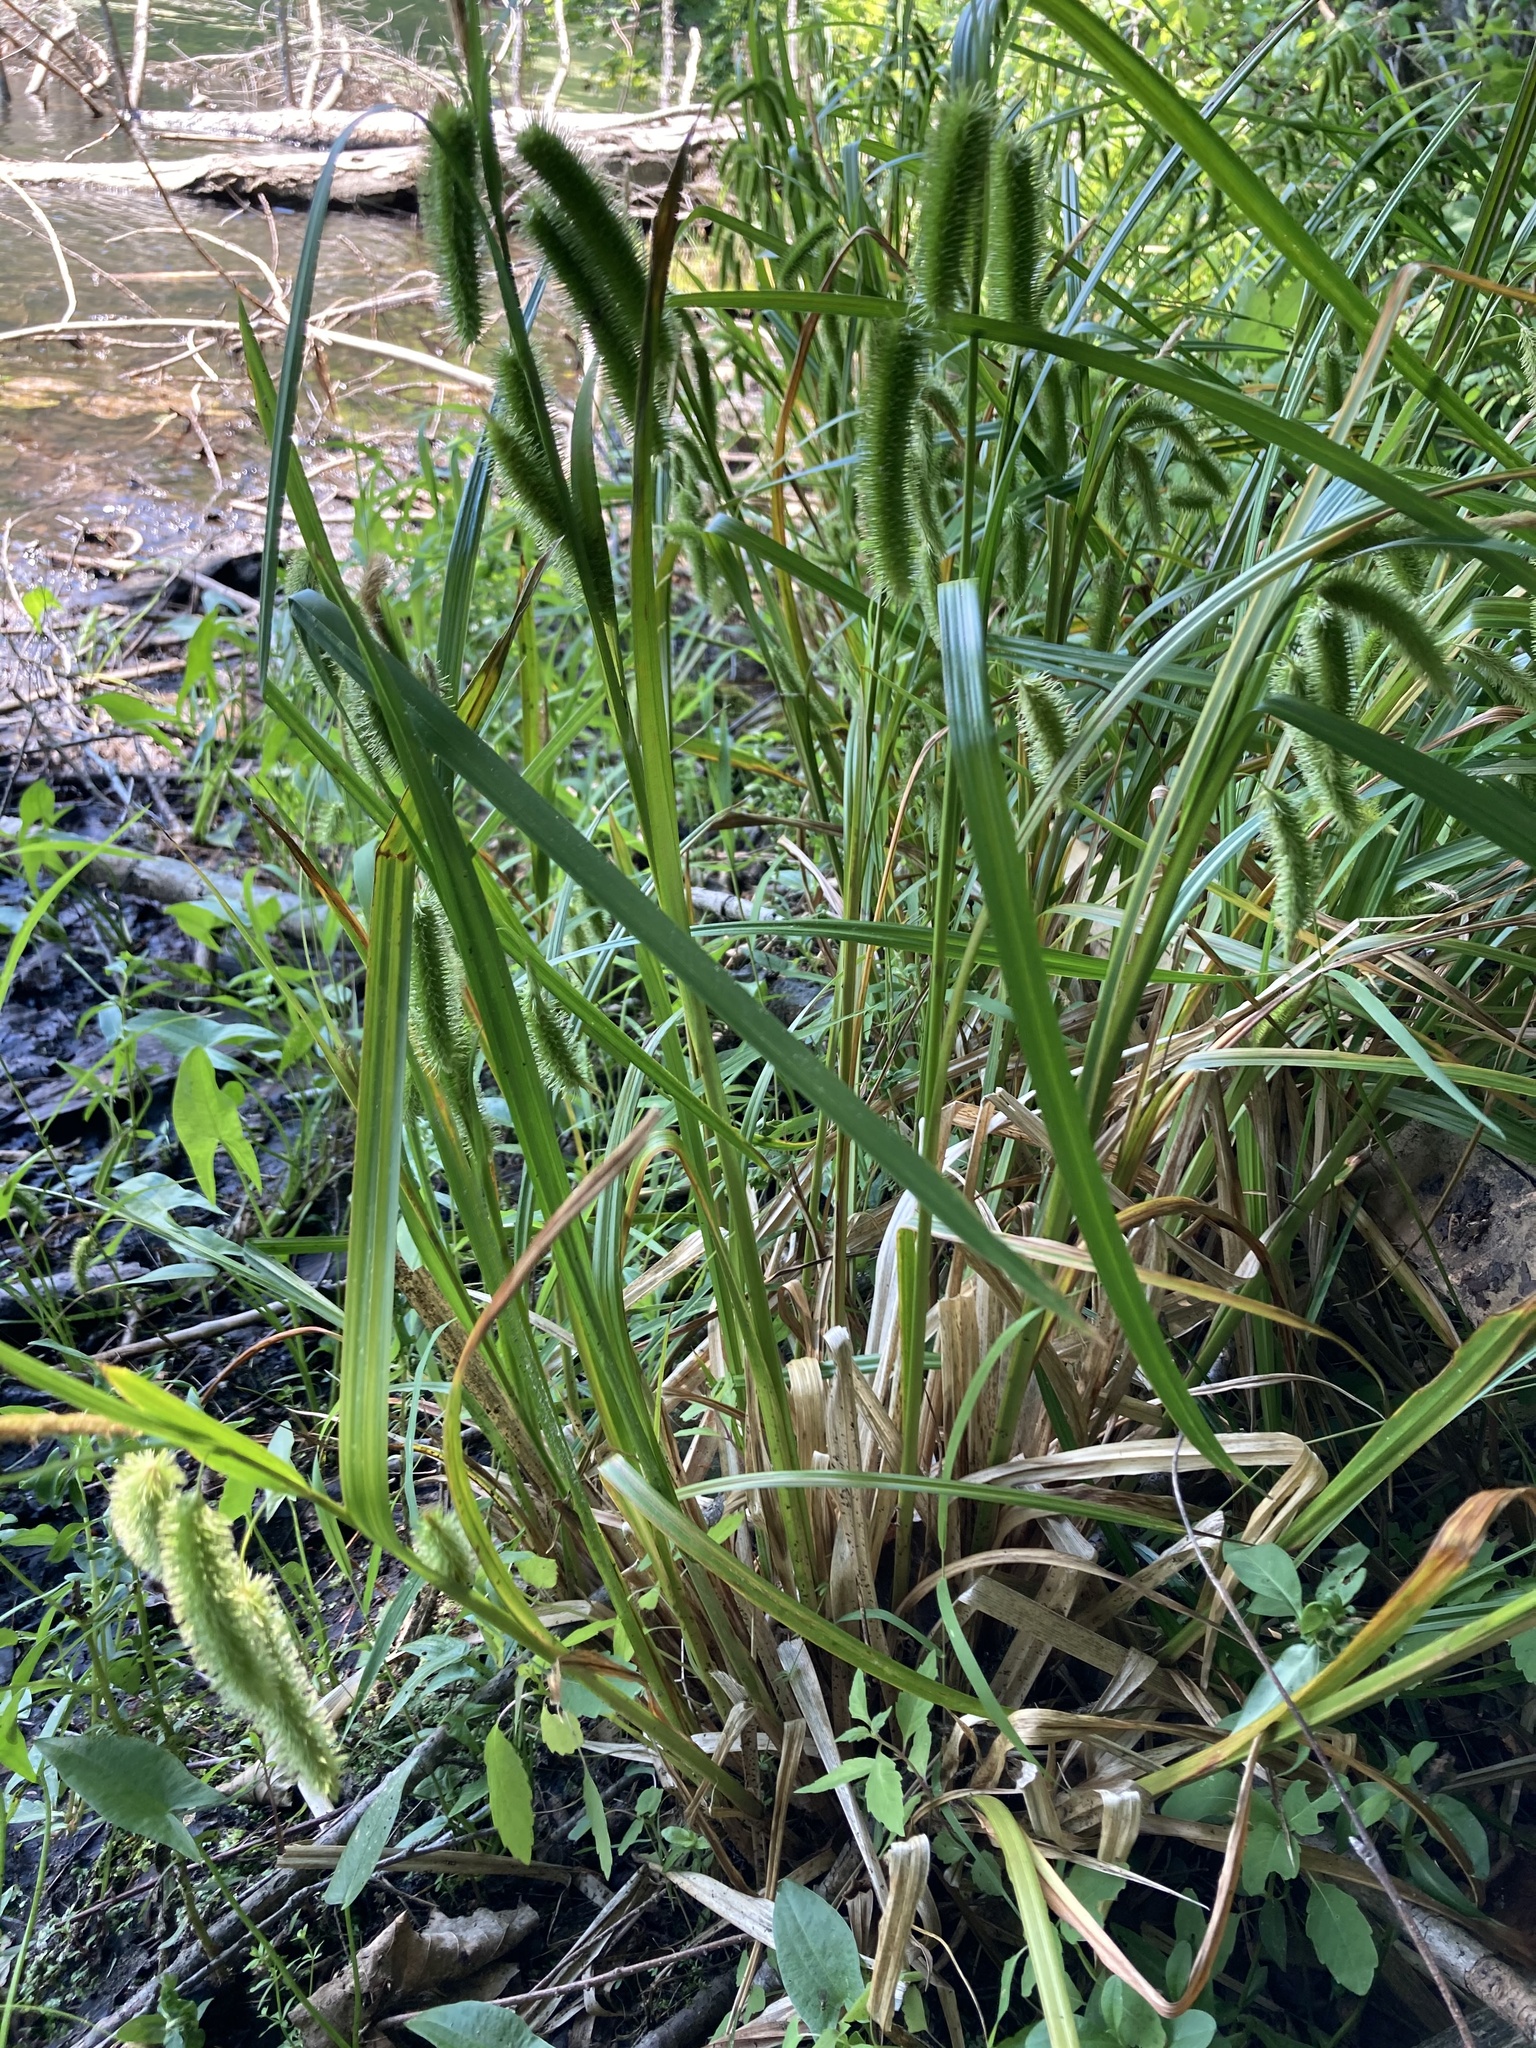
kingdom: Plantae
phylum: Tracheophyta
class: Liliopsida
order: Poales
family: Cyperaceae
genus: Carex
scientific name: Carex comosa
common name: Bristly sedge
